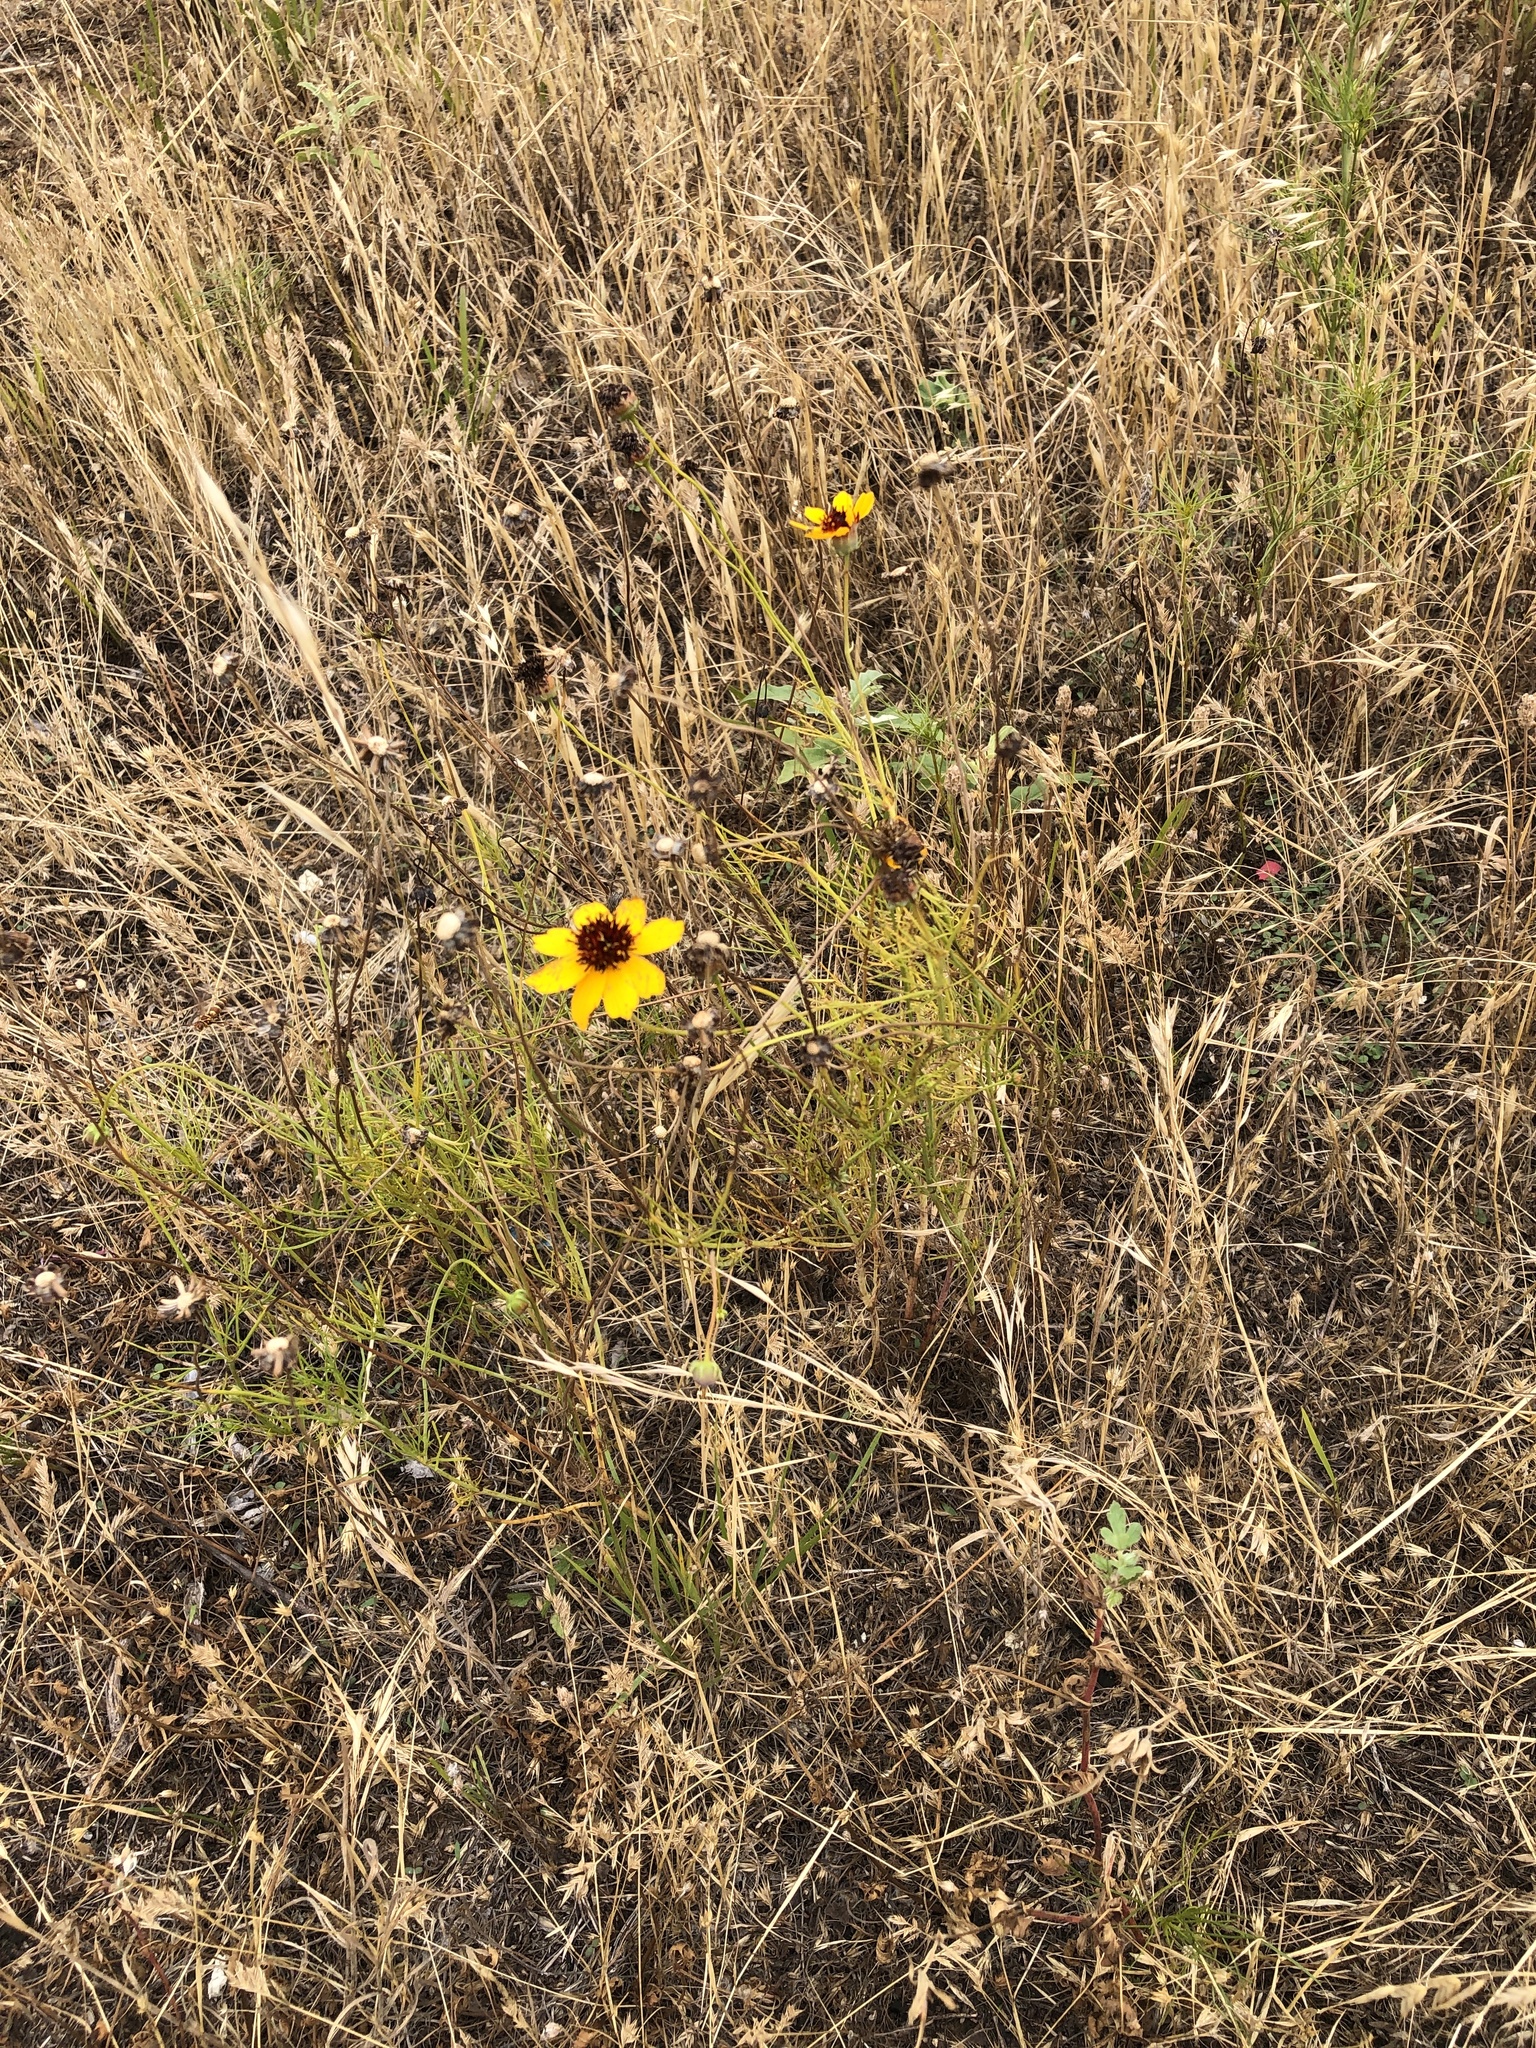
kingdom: Plantae
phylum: Tracheophyta
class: Magnoliopsida
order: Asterales
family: Asteraceae
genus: Thelesperma
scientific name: Thelesperma filifolium
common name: Stiff greenthread
